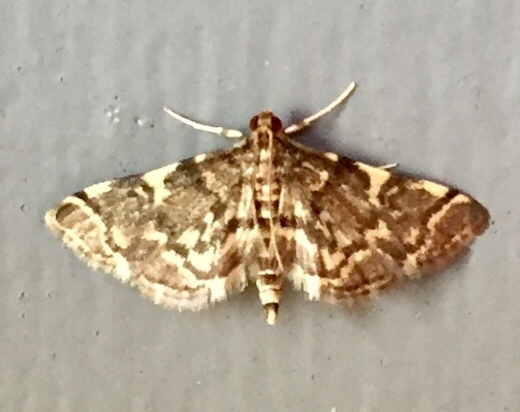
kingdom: Animalia
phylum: Arthropoda
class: Insecta
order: Lepidoptera
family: Crambidae
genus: Anageshna
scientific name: Anageshna primordialis
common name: Yellow-spotted webworm moth
